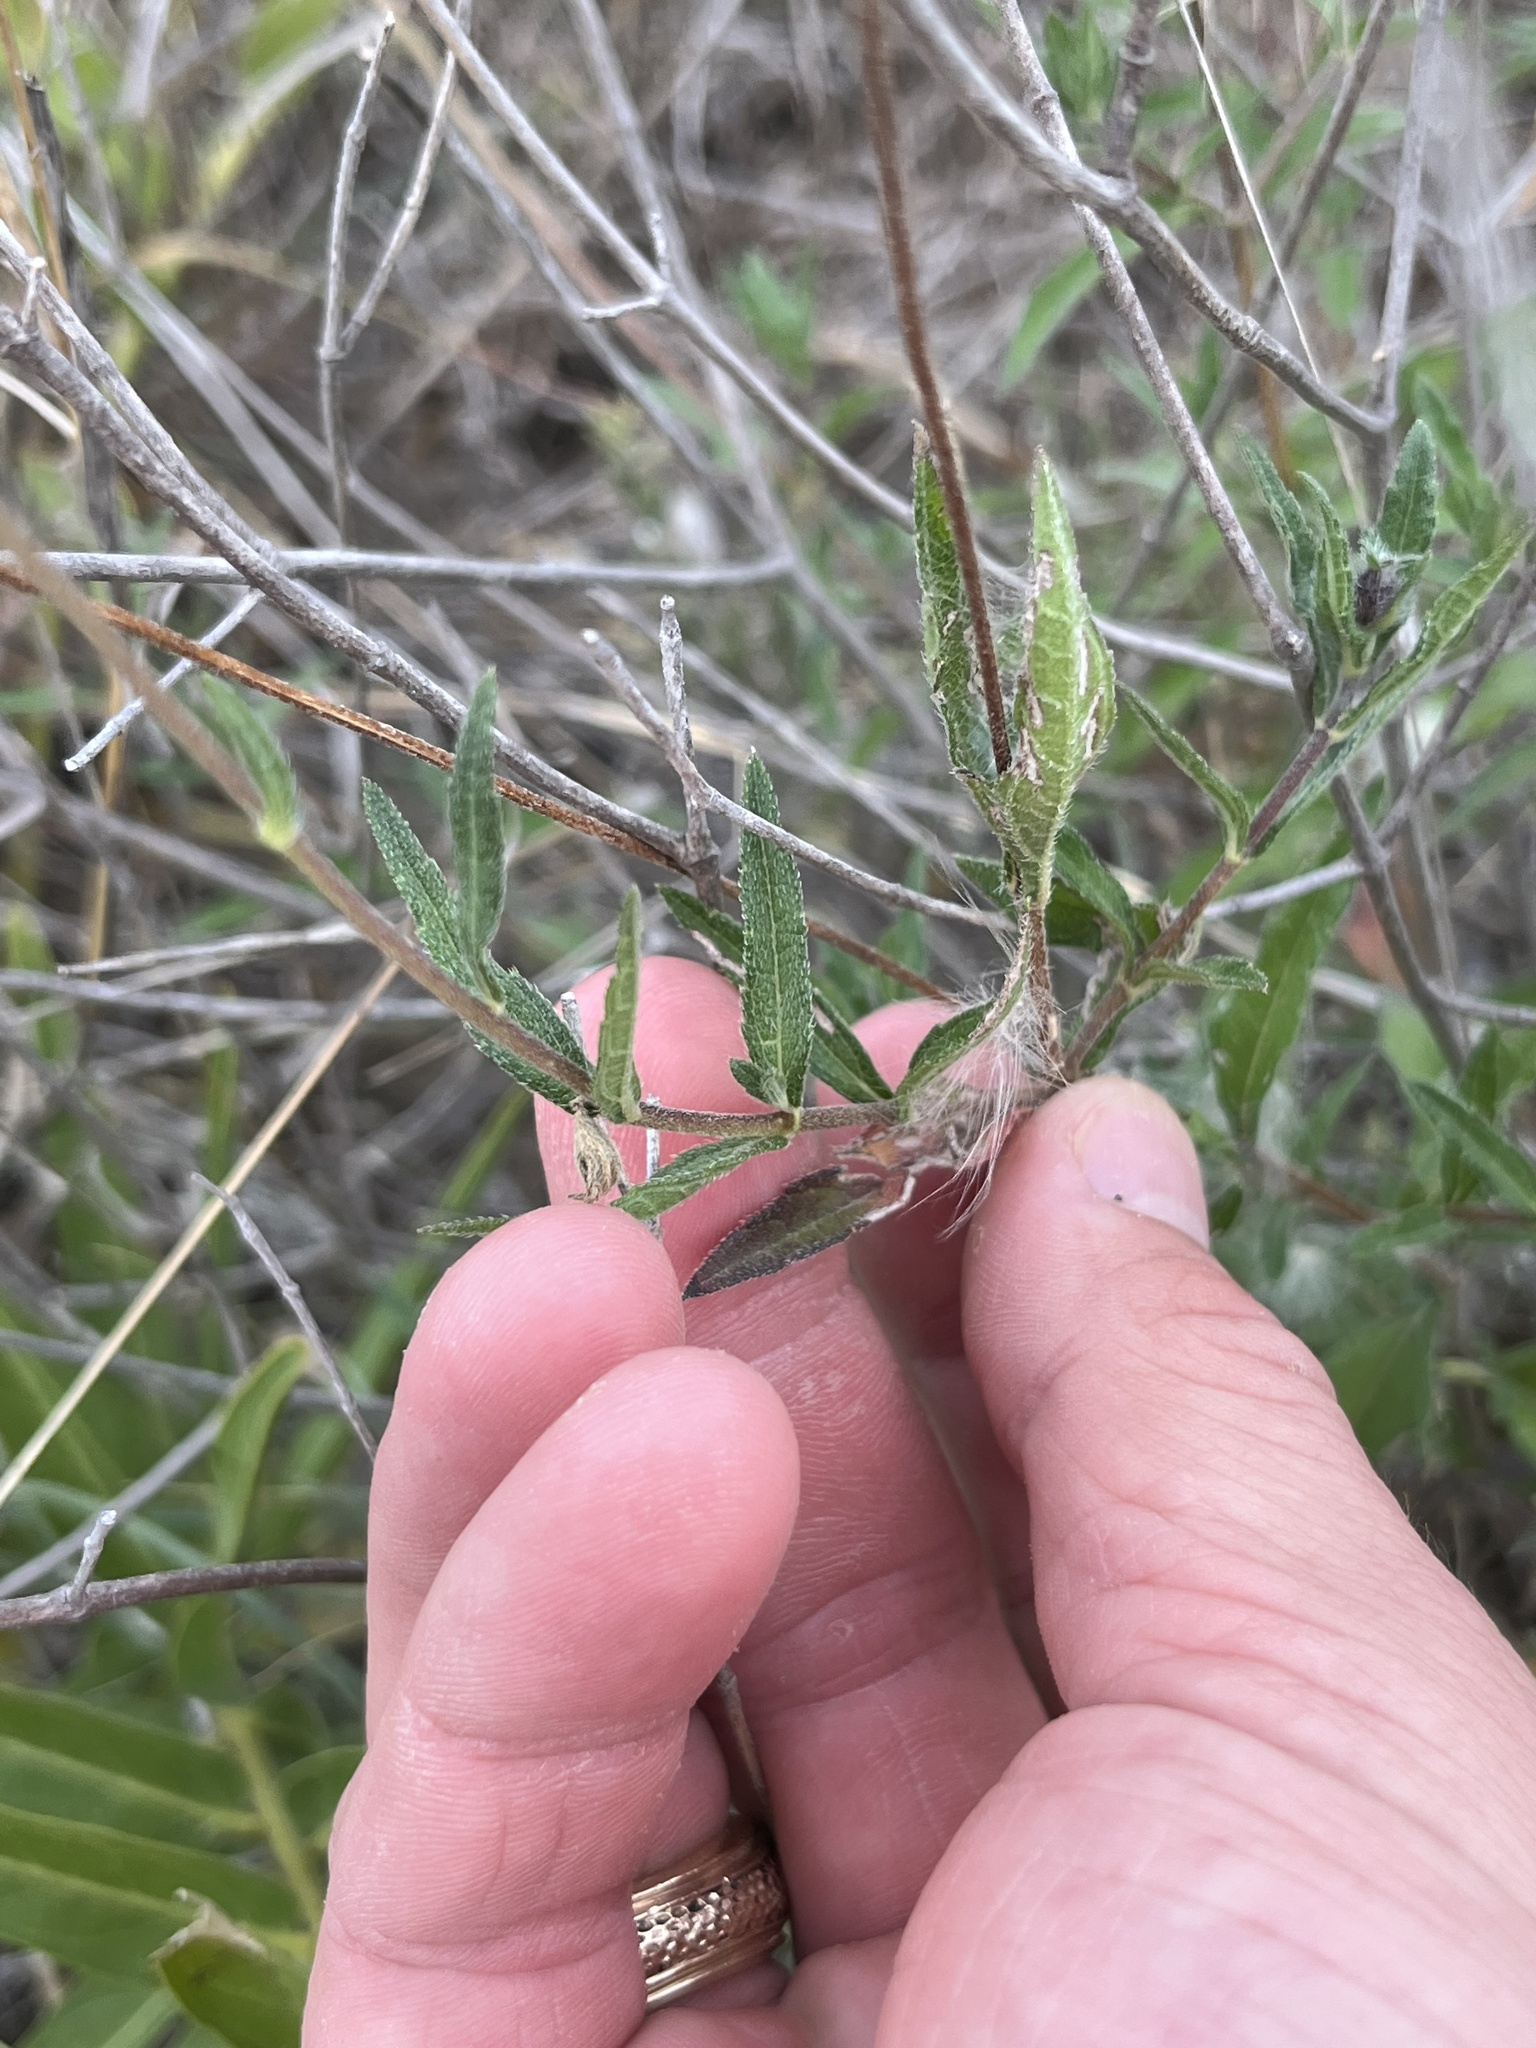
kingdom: Plantae
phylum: Tracheophyta
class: Magnoliopsida
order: Asterales
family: Asteraceae
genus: Wedelia
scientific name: Wedelia acapulcensis
